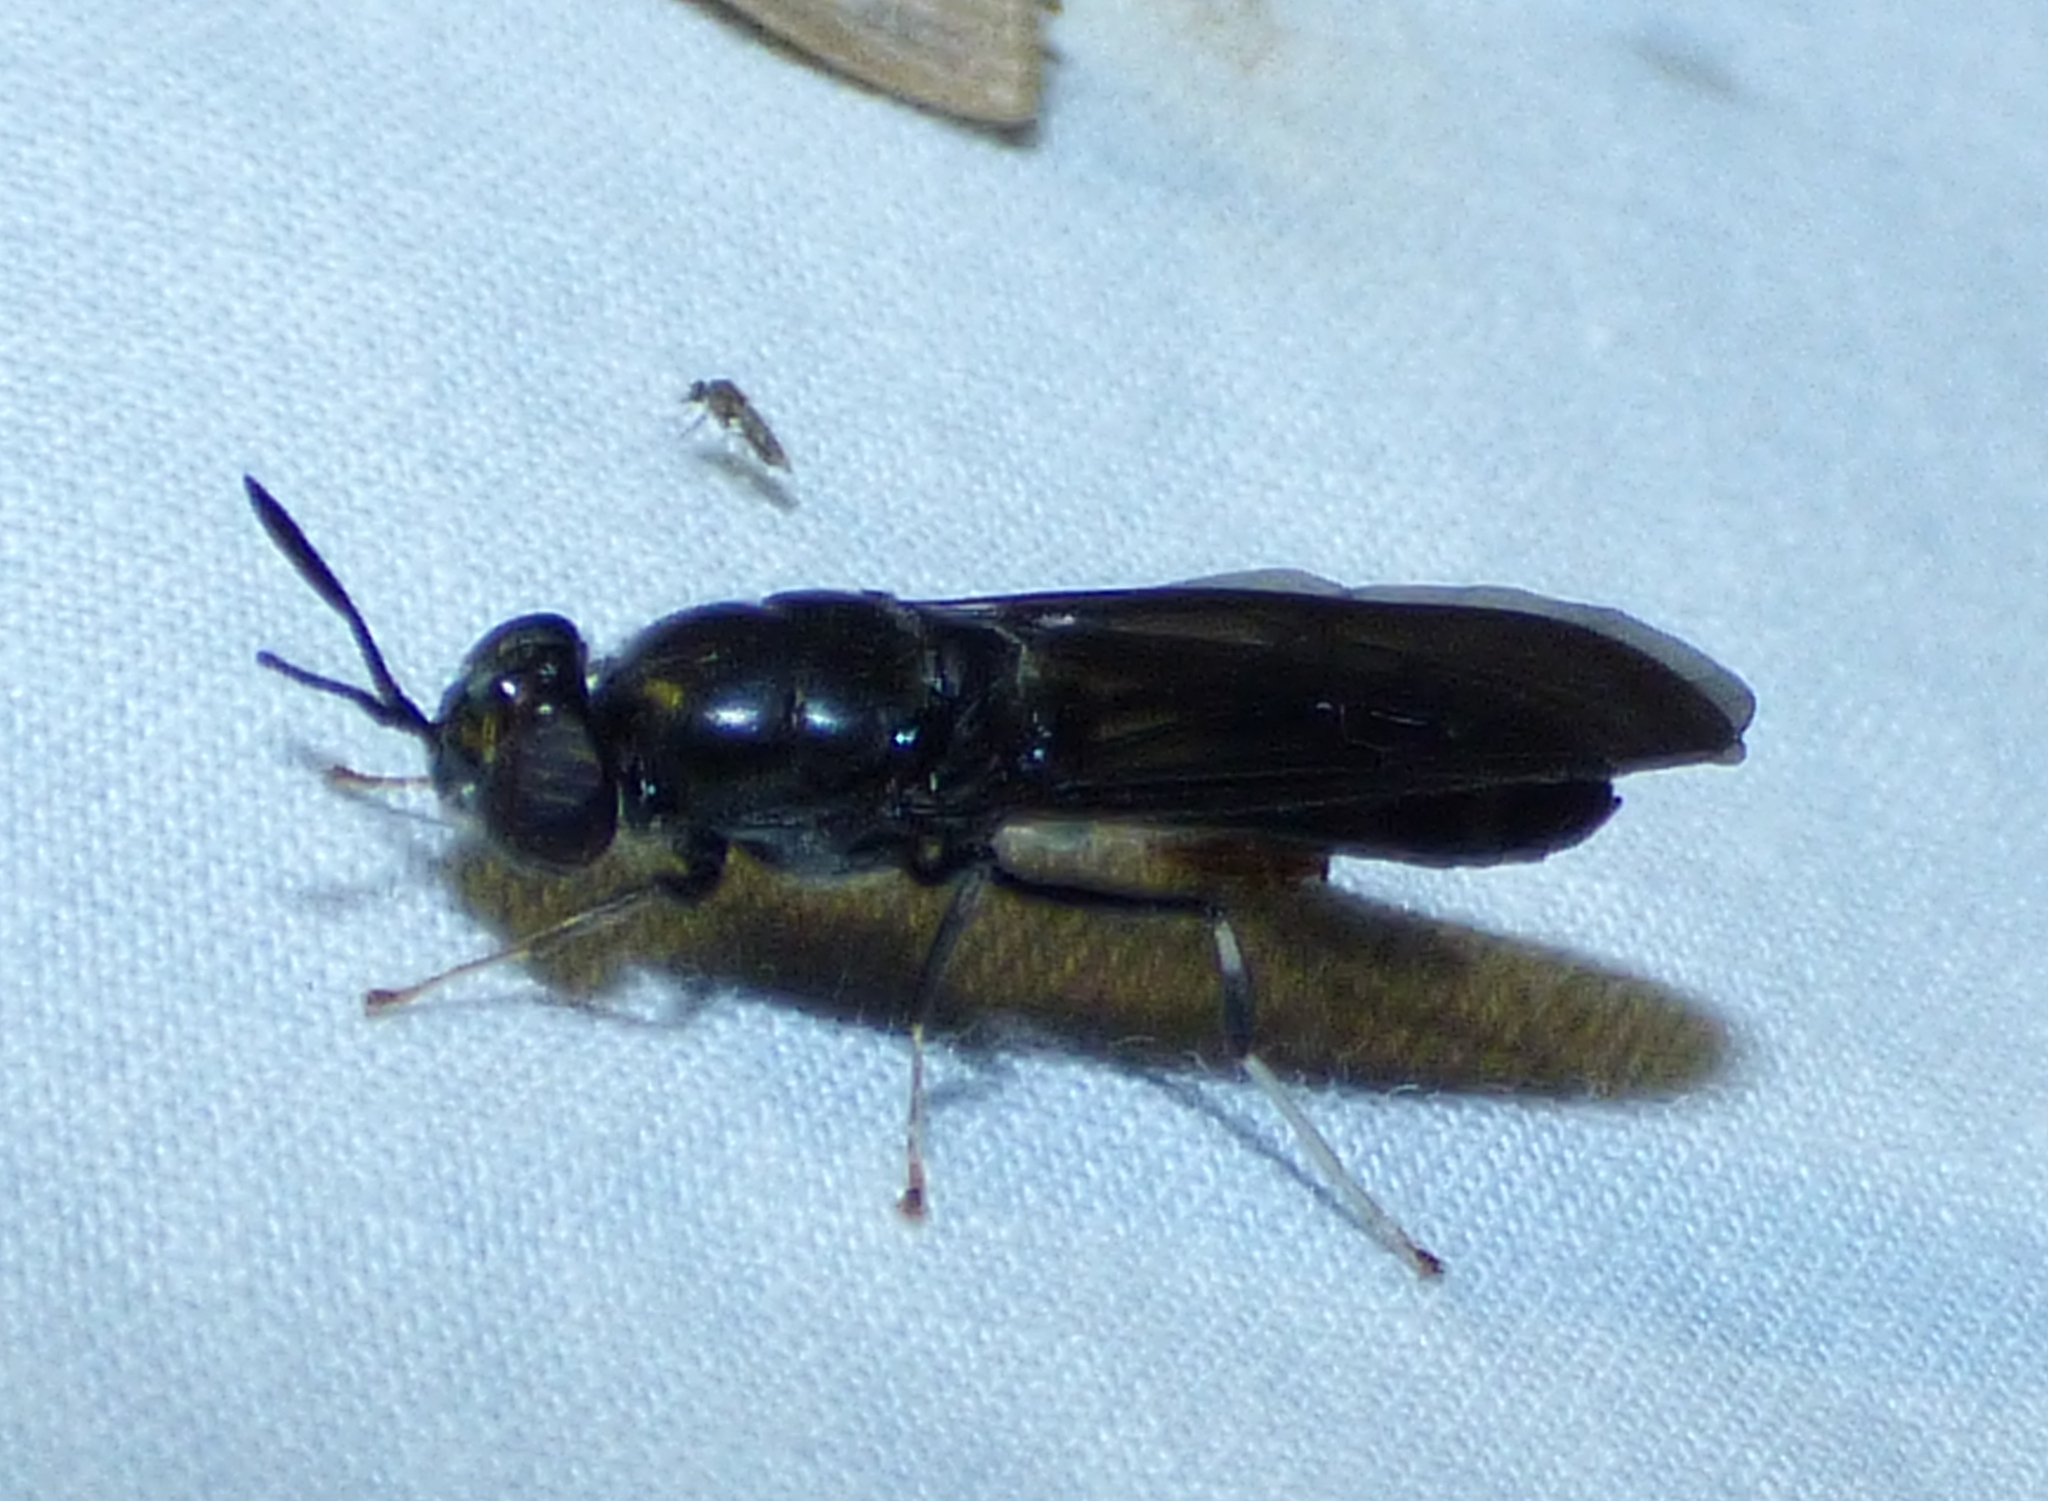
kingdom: Animalia
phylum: Arthropoda
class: Insecta
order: Diptera
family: Stratiomyidae
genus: Hermetia
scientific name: Hermetia illucens
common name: Black soldier fly
